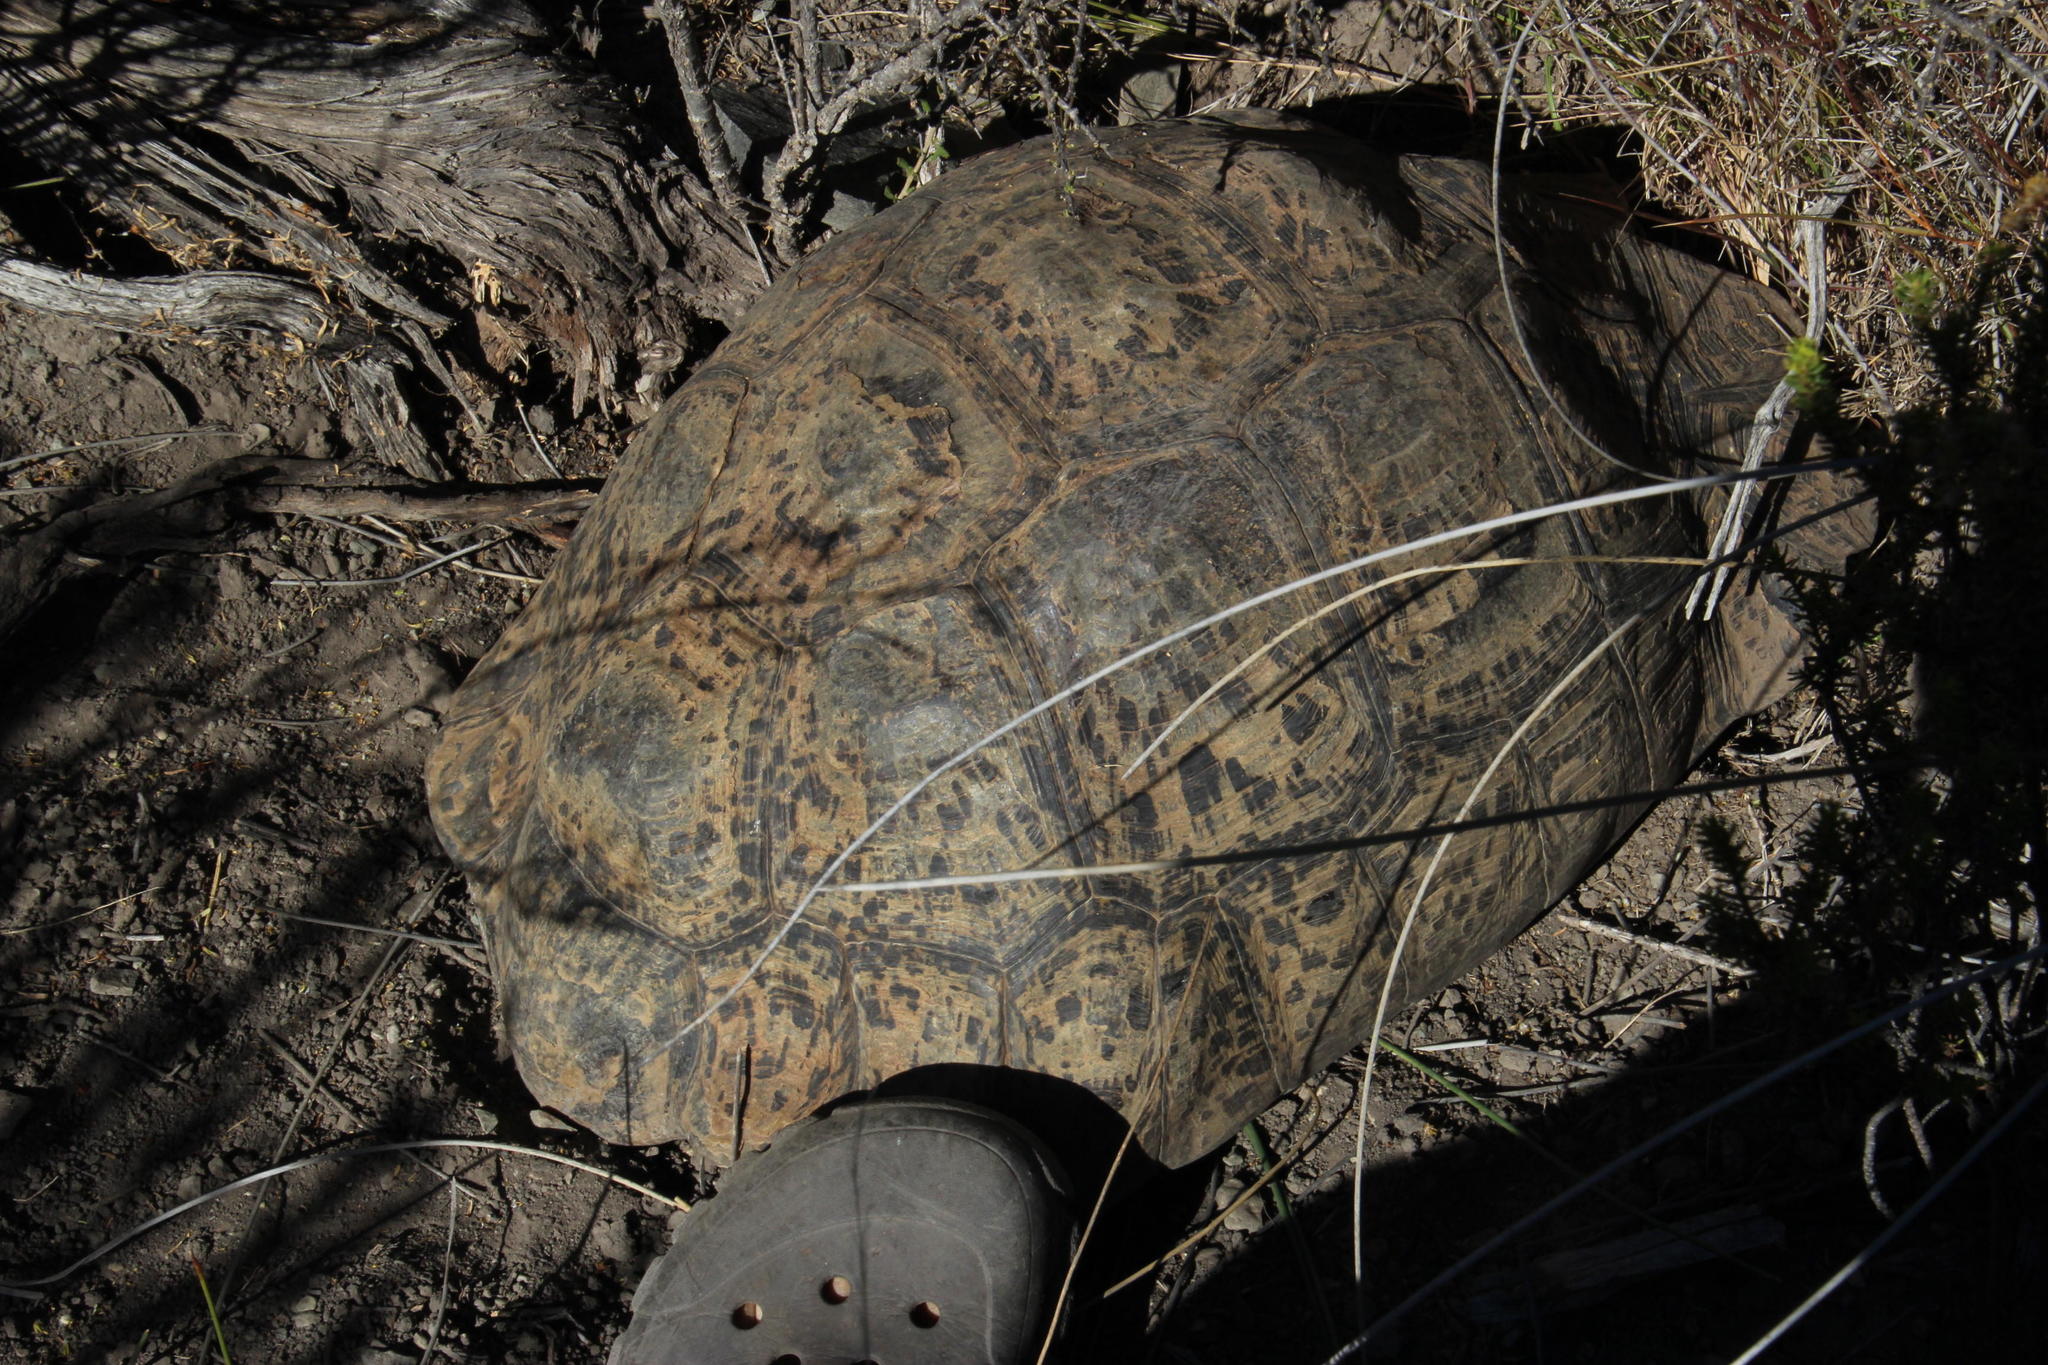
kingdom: Animalia
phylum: Chordata
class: Testudines
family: Testudinidae
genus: Stigmochelys
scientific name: Stigmochelys pardalis
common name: Leopard tortoise
